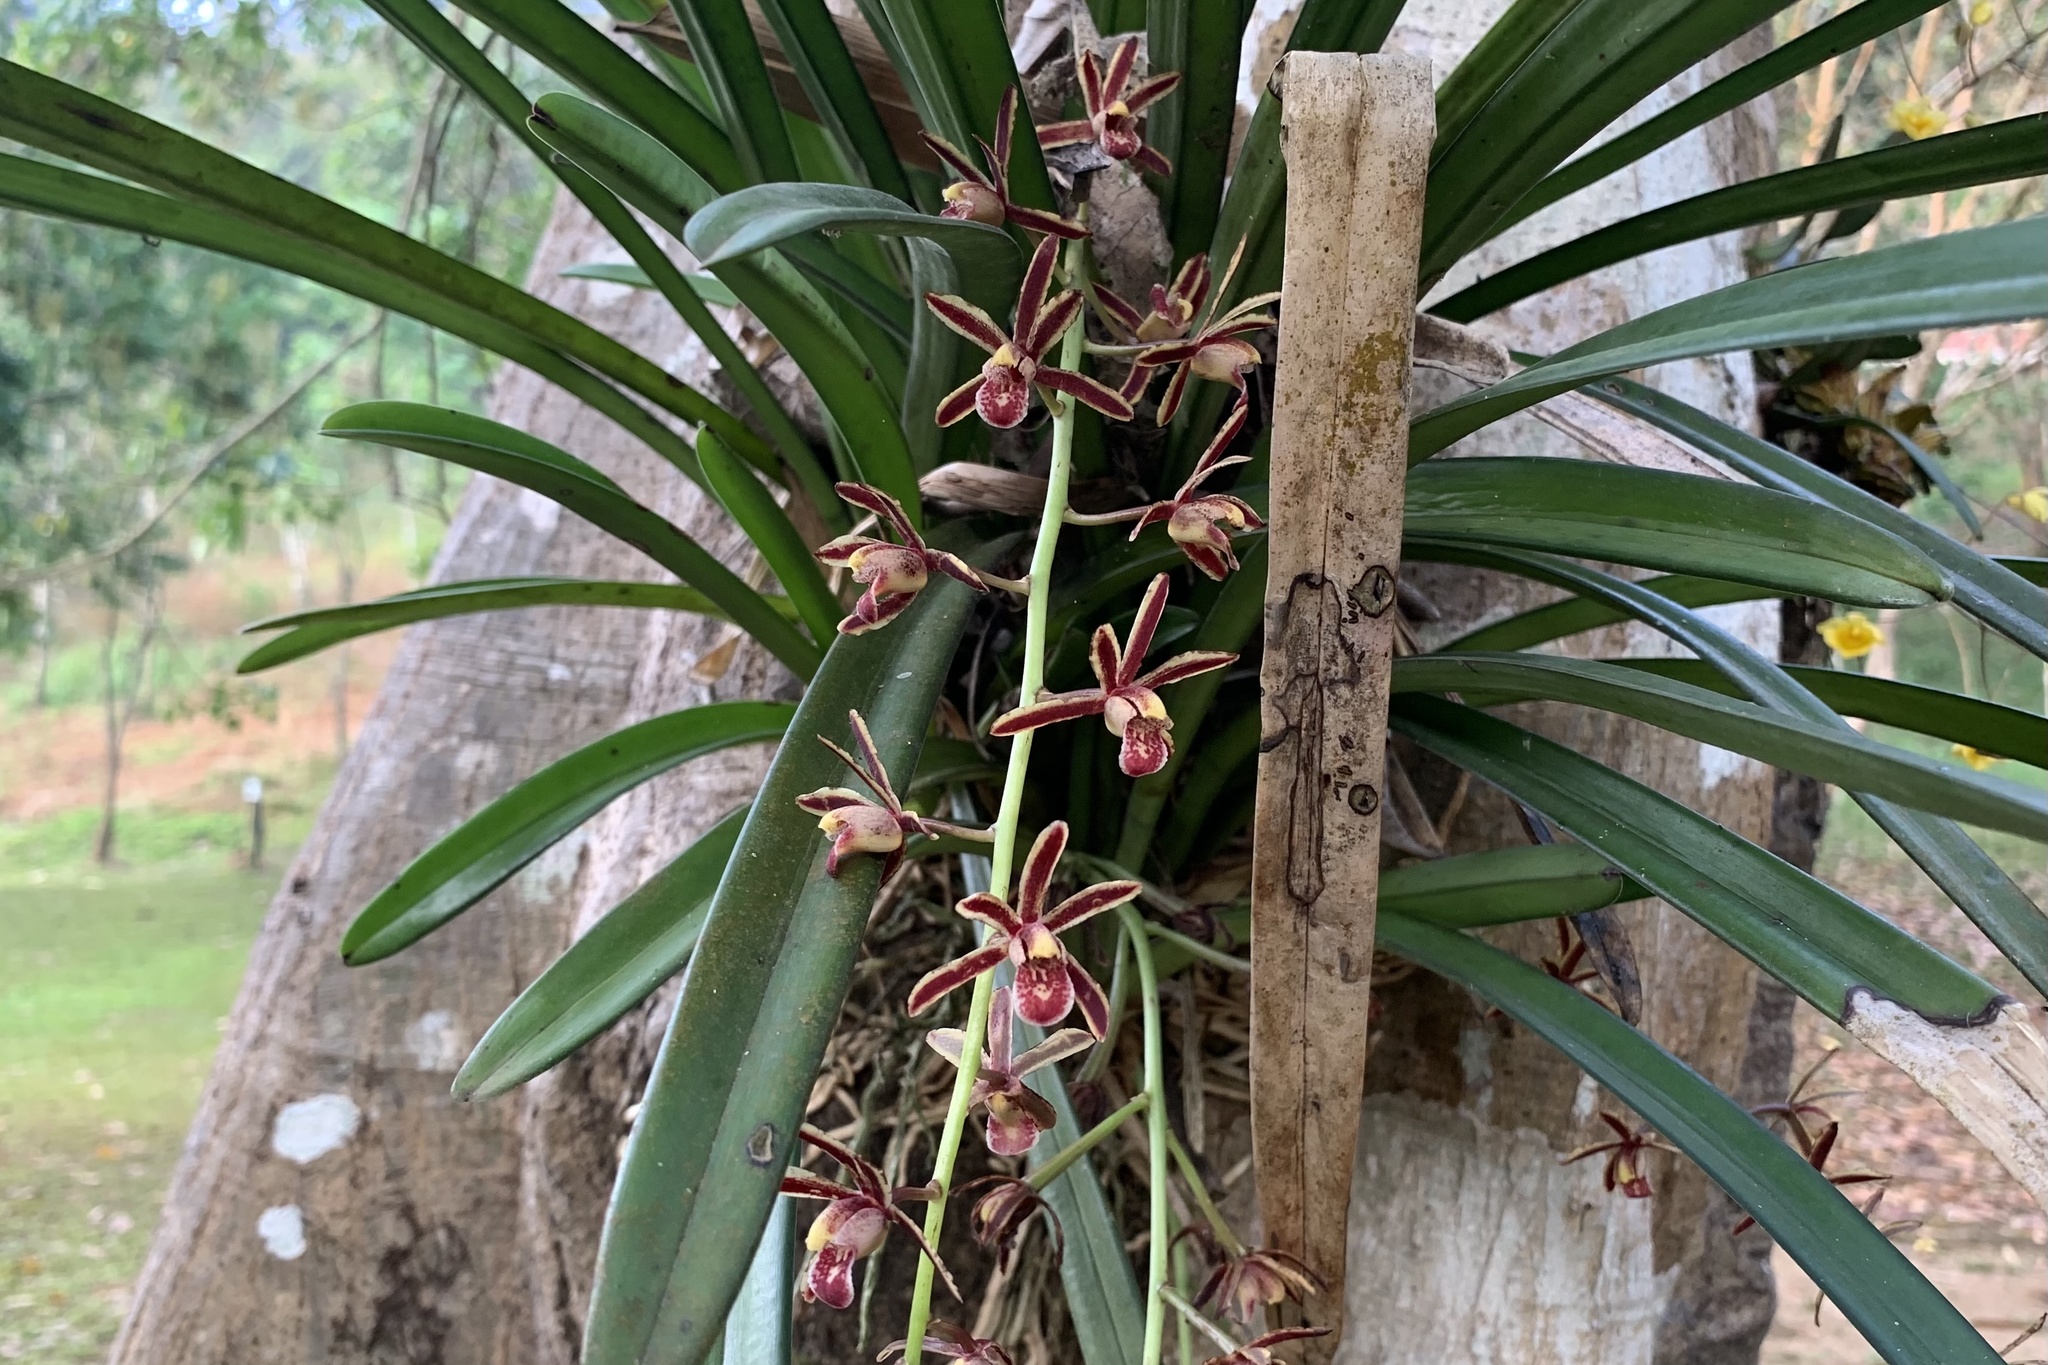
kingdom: Plantae
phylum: Tracheophyta
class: Liliopsida
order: Asparagales
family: Orchidaceae
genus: Cymbidium
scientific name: Cymbidium bicolor
